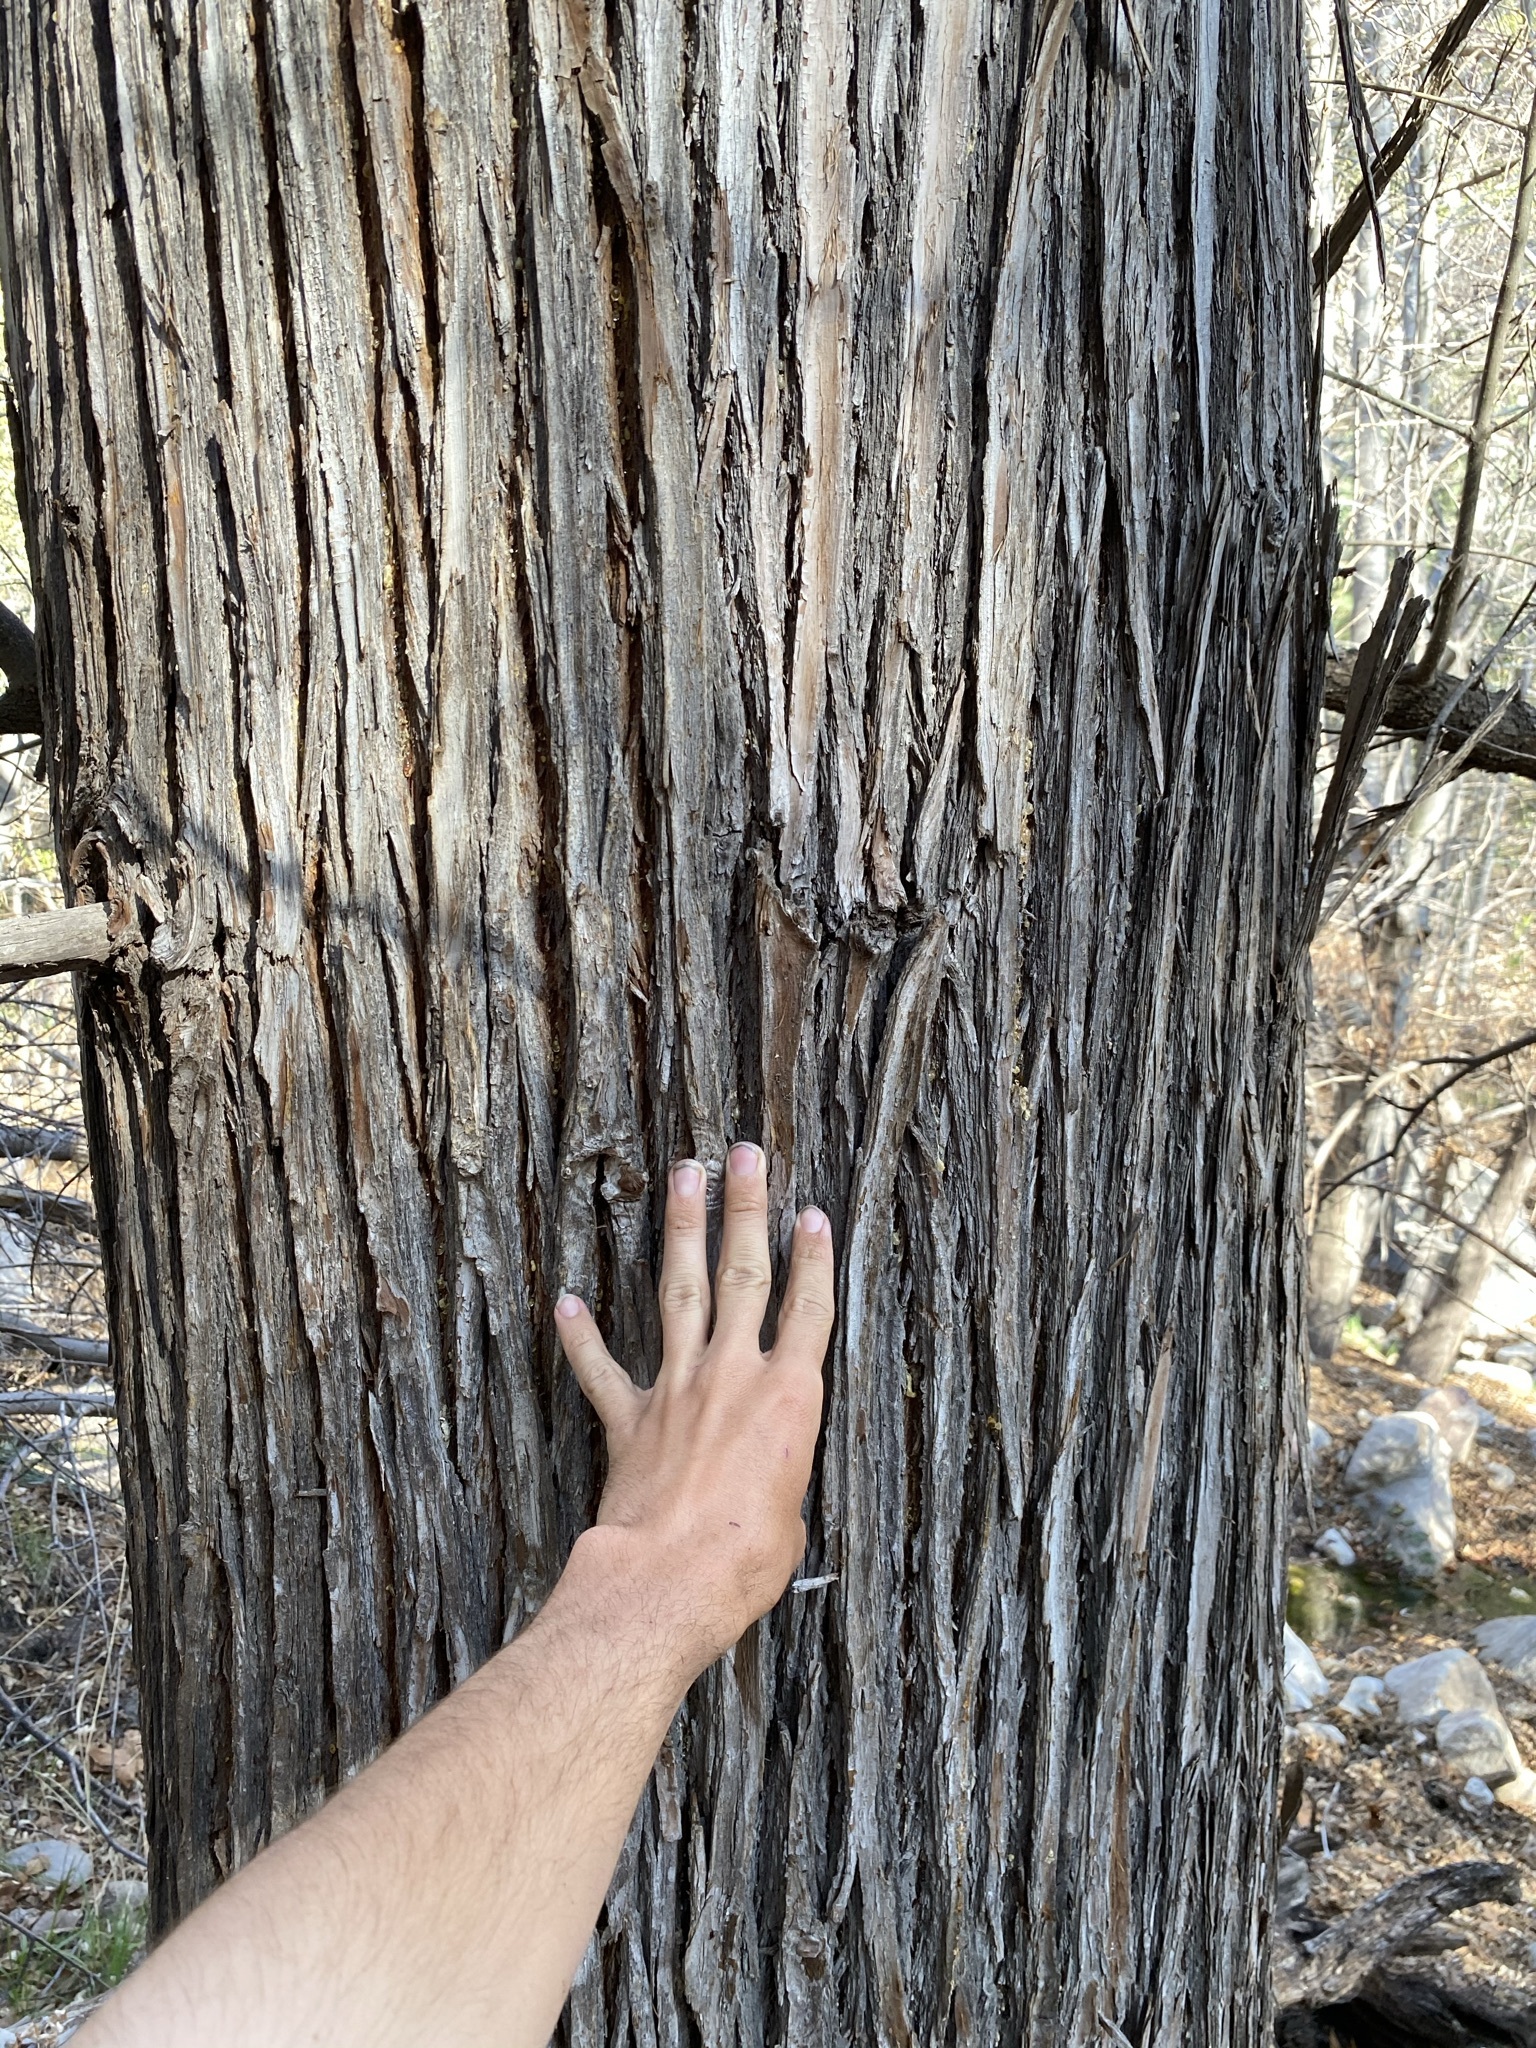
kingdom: Plantae
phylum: Tracheophyta
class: Pinopsida
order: Pinales
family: Cupressaceae
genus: Cupressus
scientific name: Cupressus arizonica
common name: Arizona cypress
